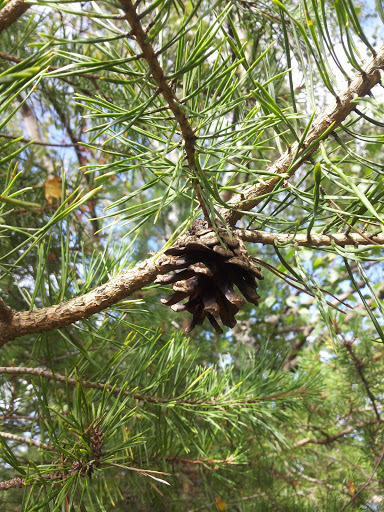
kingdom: Plantae
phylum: Tracheophyta
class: Pinopsida
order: Pinales
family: Pinaceae
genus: Pinus
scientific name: Pinus sylvestris
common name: Scots pine
